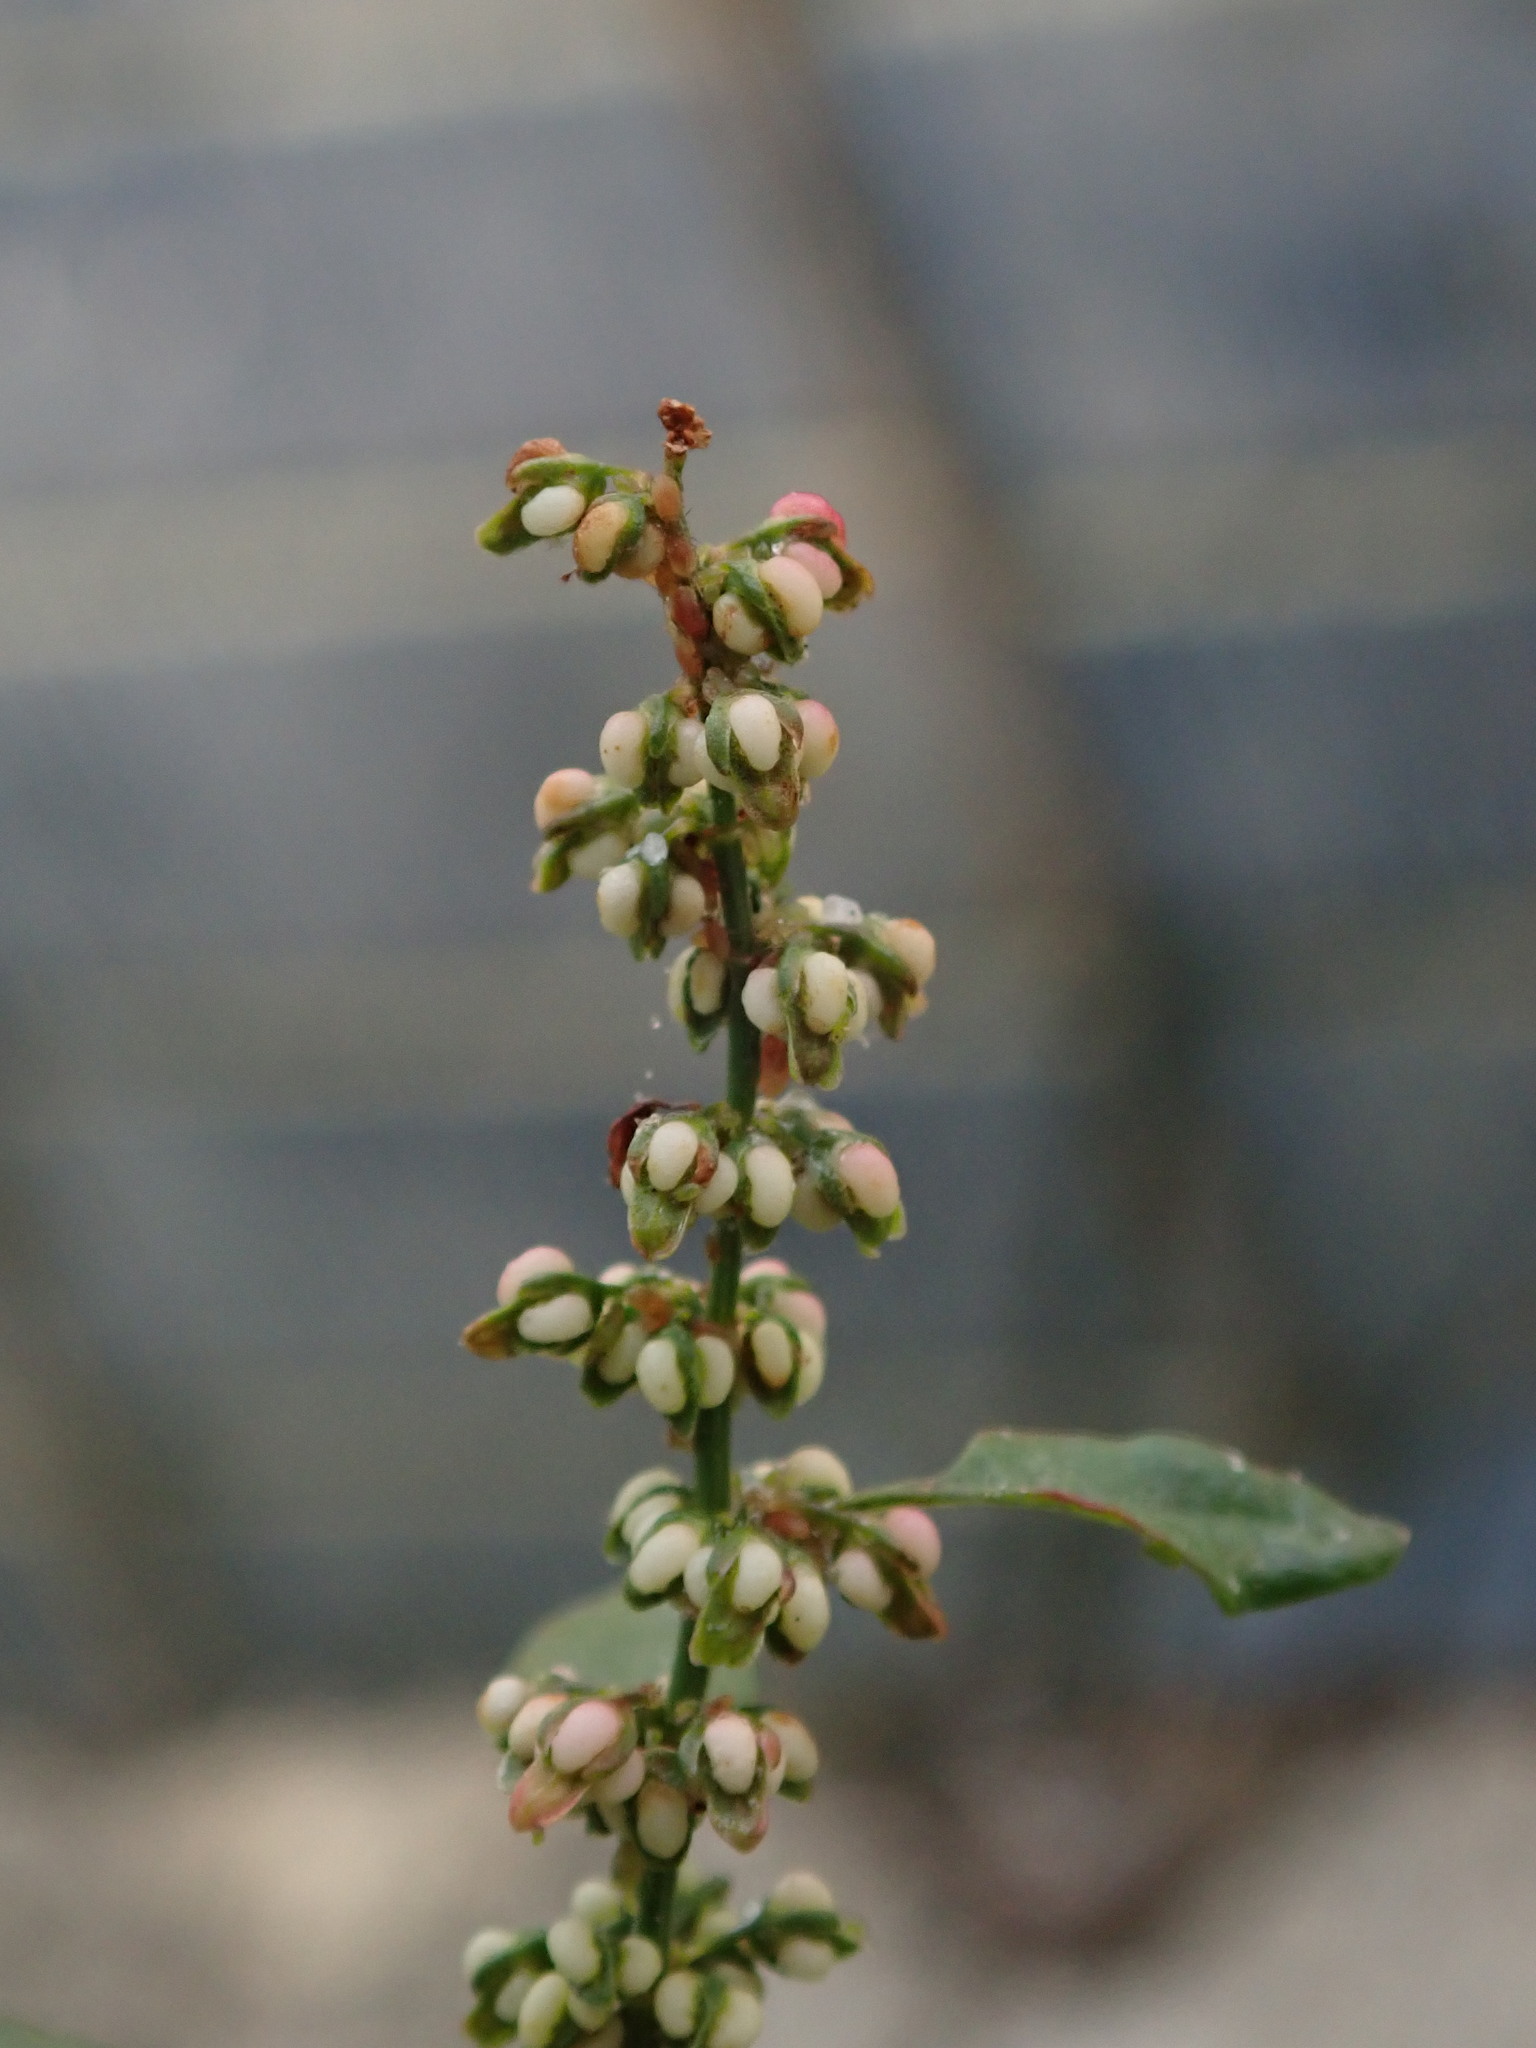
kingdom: Plantae
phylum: Tracheophyta
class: Magnoliopsida
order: Caryophyllales
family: Polygonaceae
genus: Rumex
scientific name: Rumex conglomeratus
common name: Clustered dock
